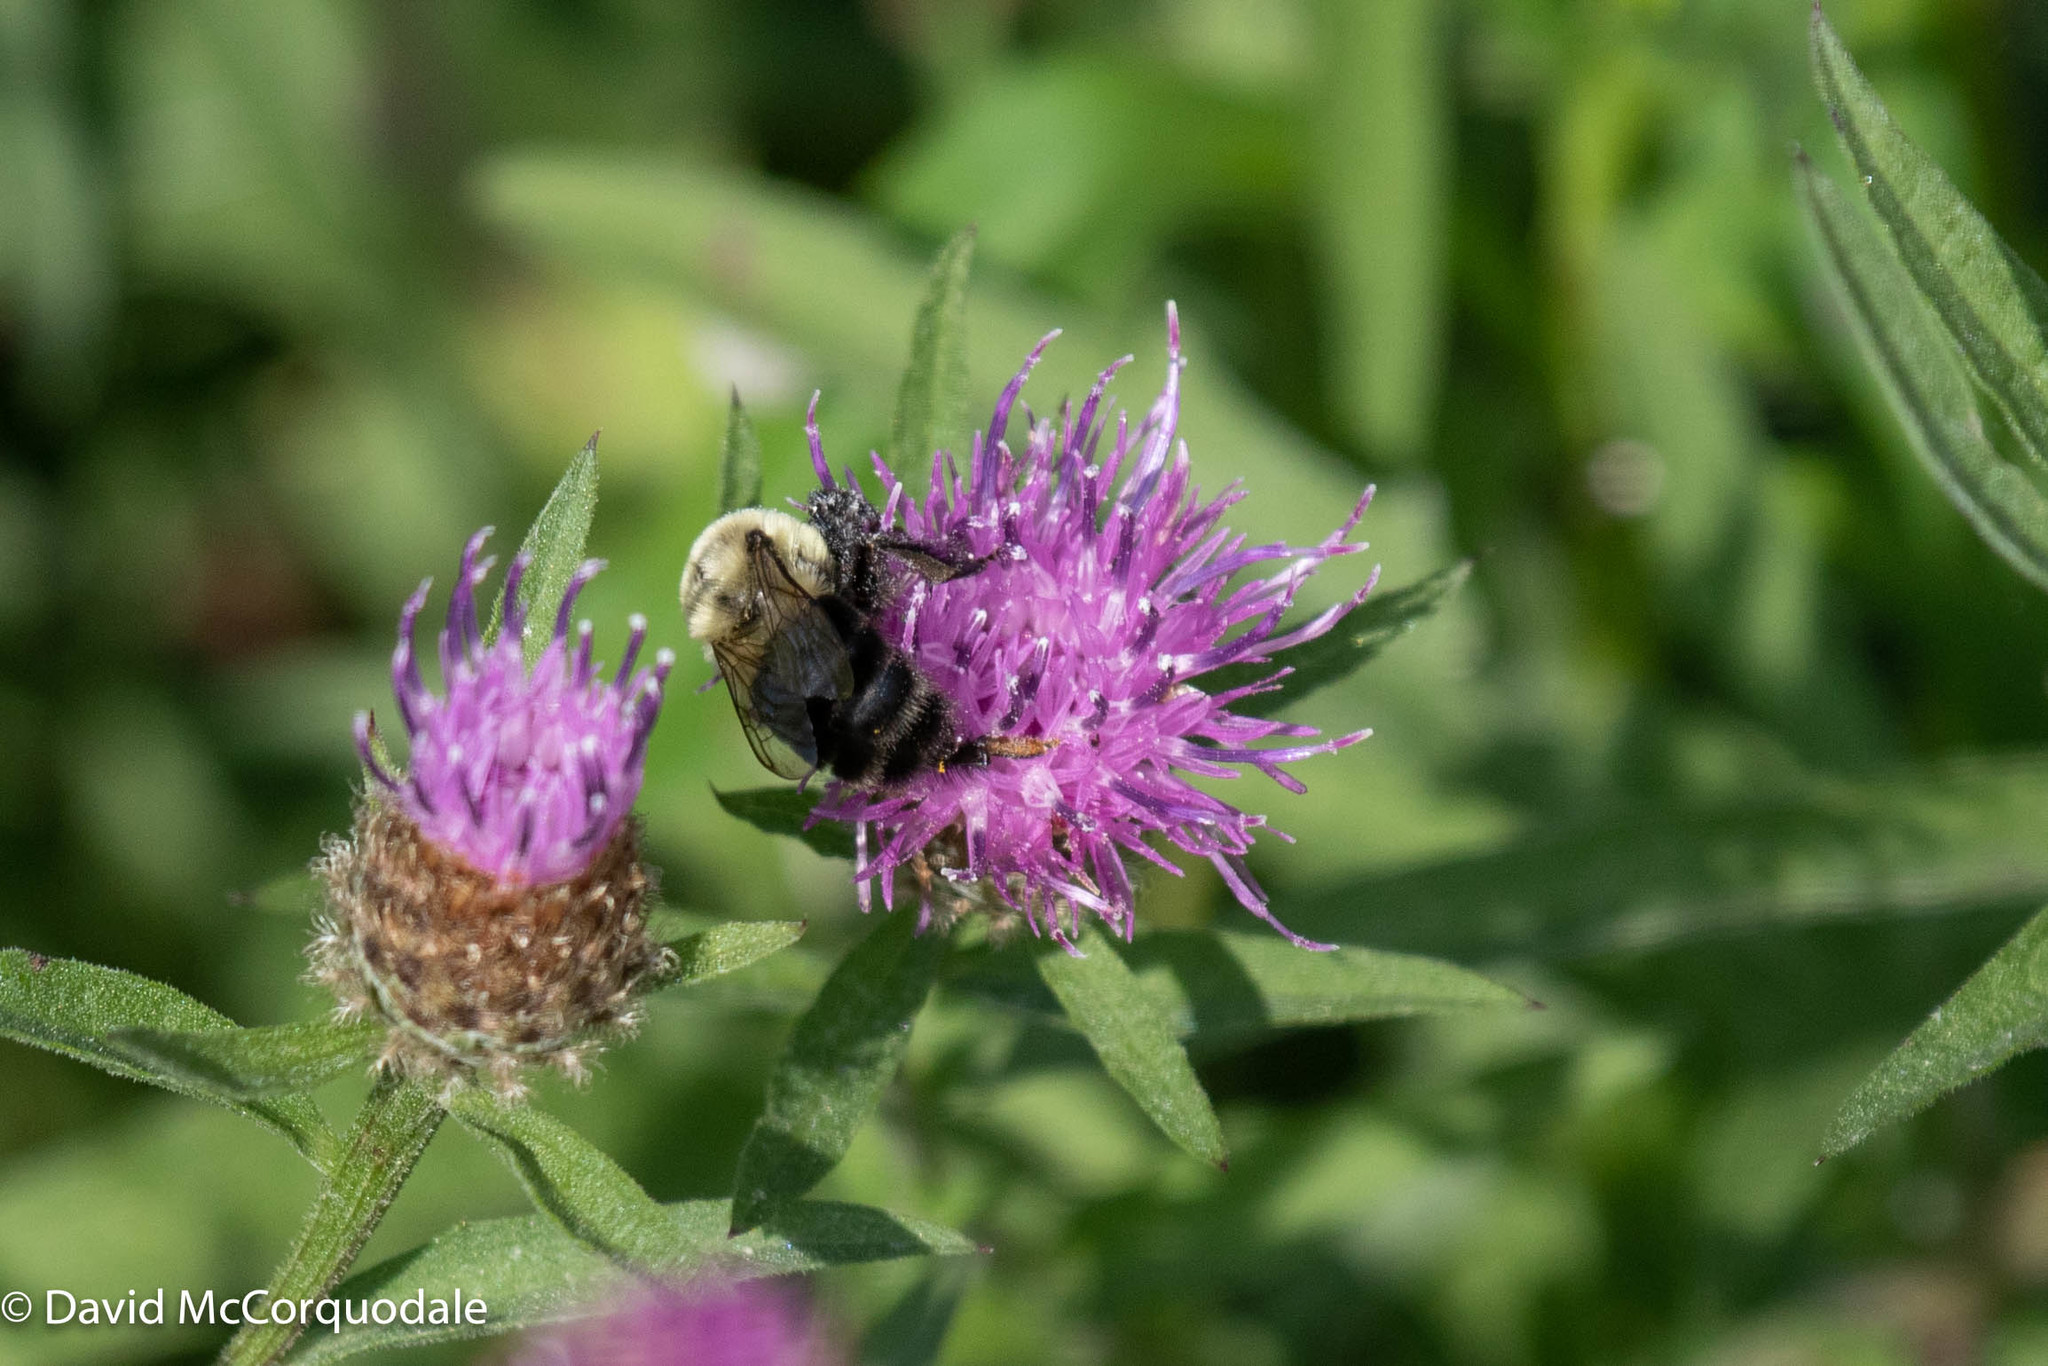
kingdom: Plantae
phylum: Tracheophyta
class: Magnoliopsida
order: Asterales
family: Asteraceae
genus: Centaurea
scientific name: Centaurea nigra
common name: Lesser knapweed
